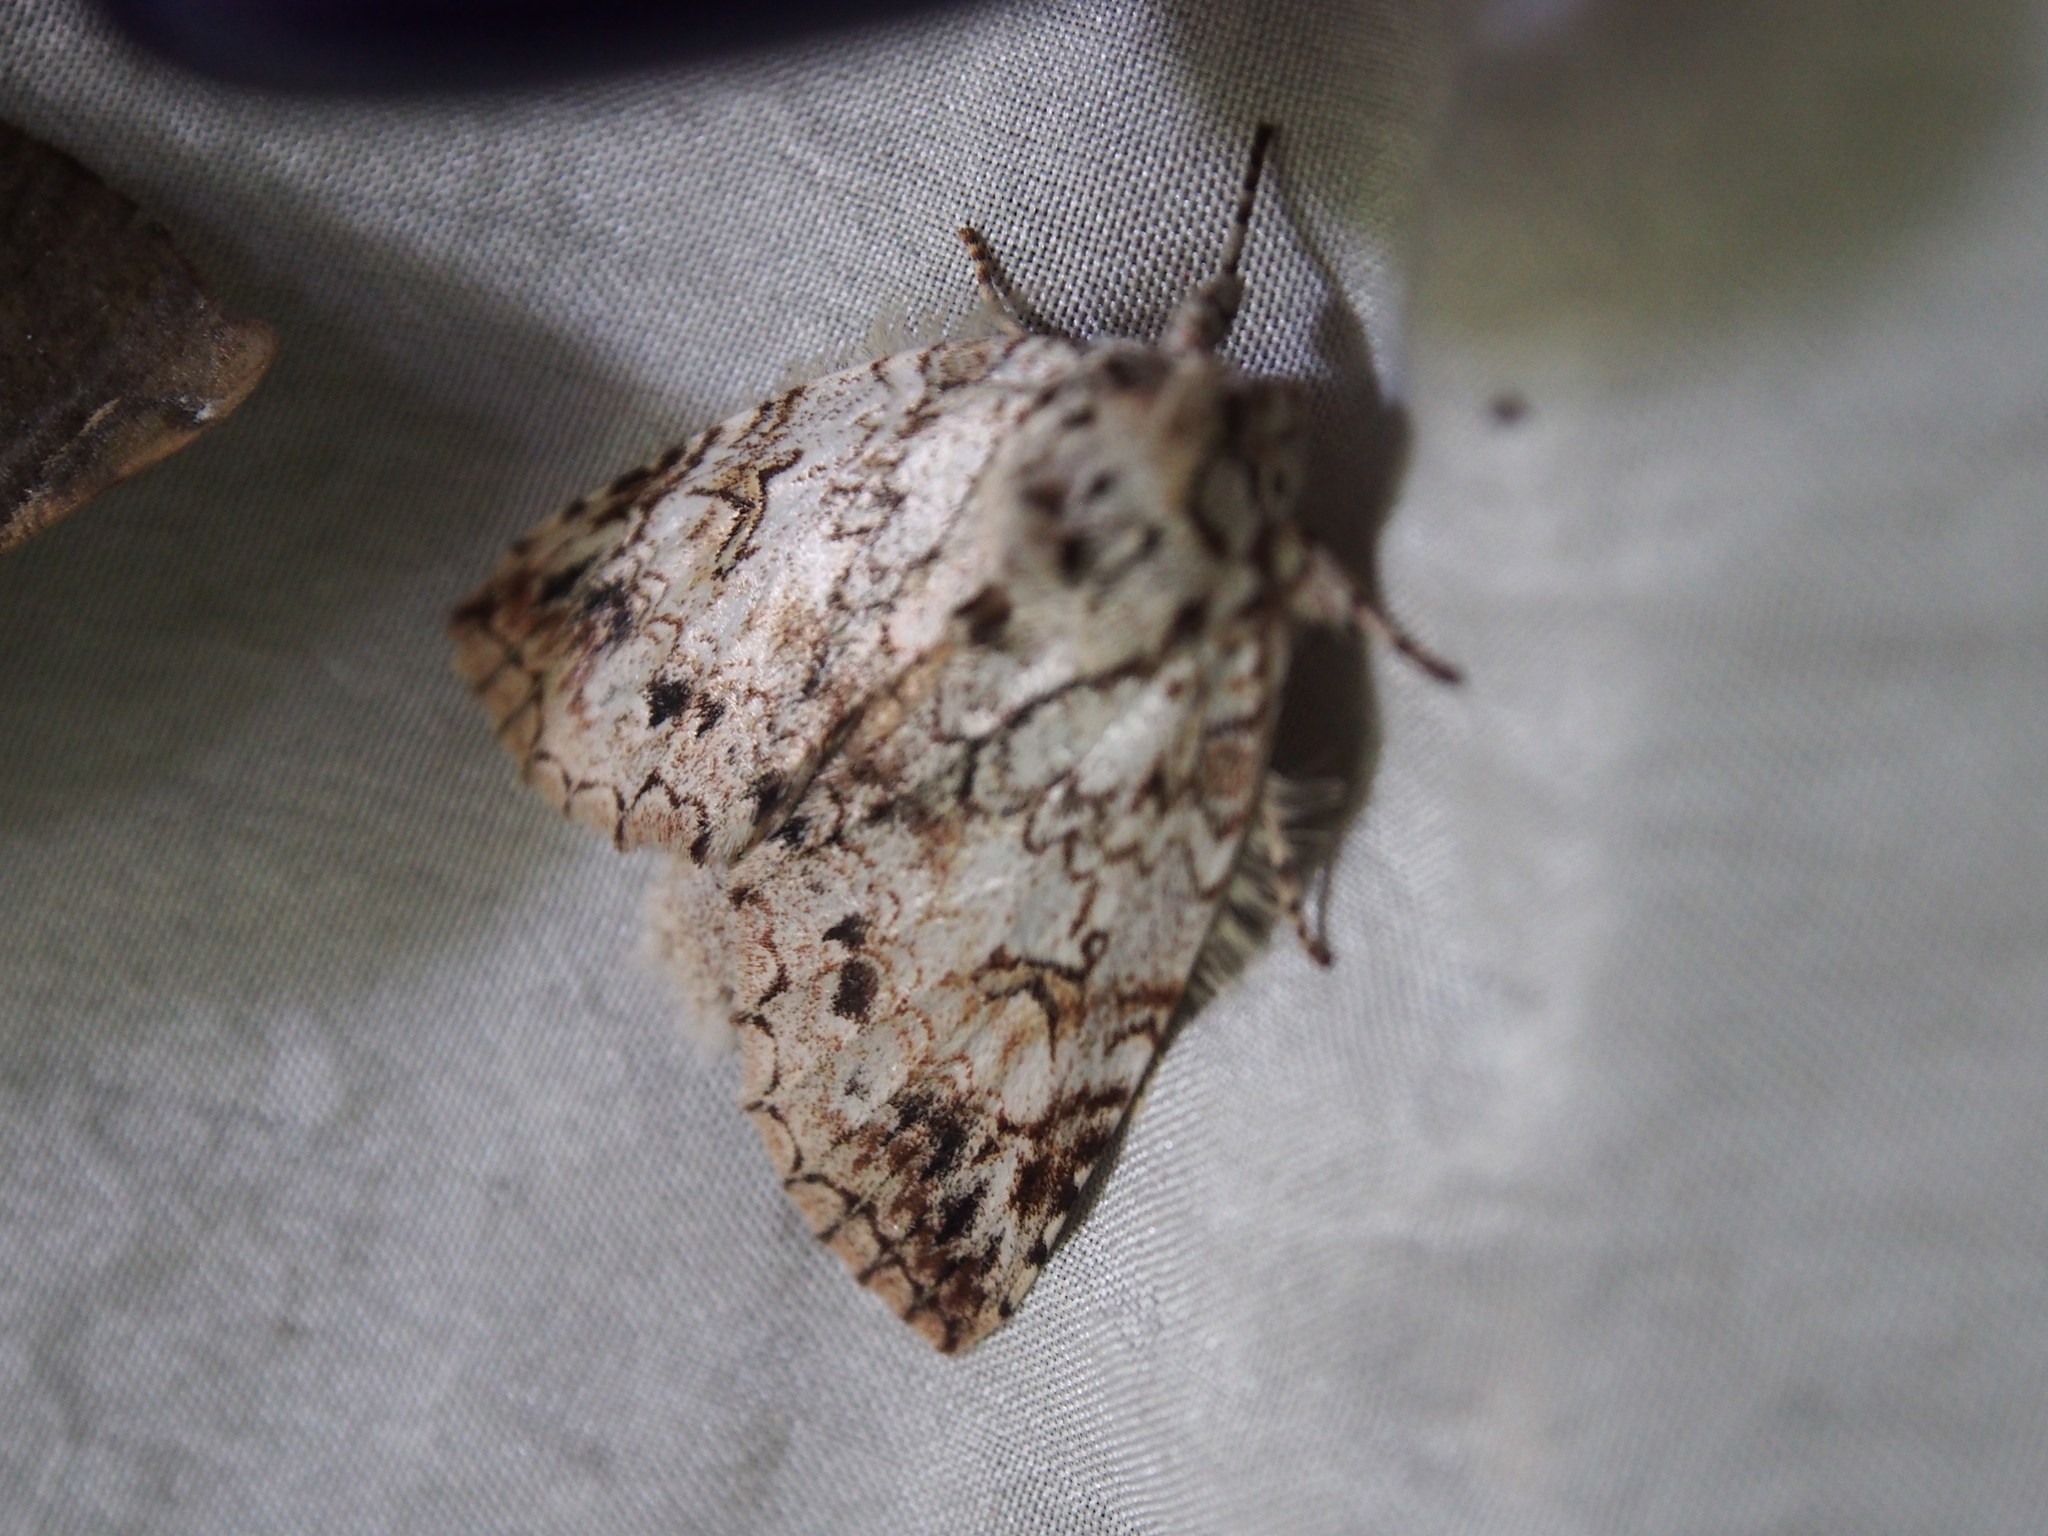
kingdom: Animalia
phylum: Arthropoda
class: Insecta
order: Lepidoptera
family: Notodontidae
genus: Rifargia
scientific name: Rifargia demissa
